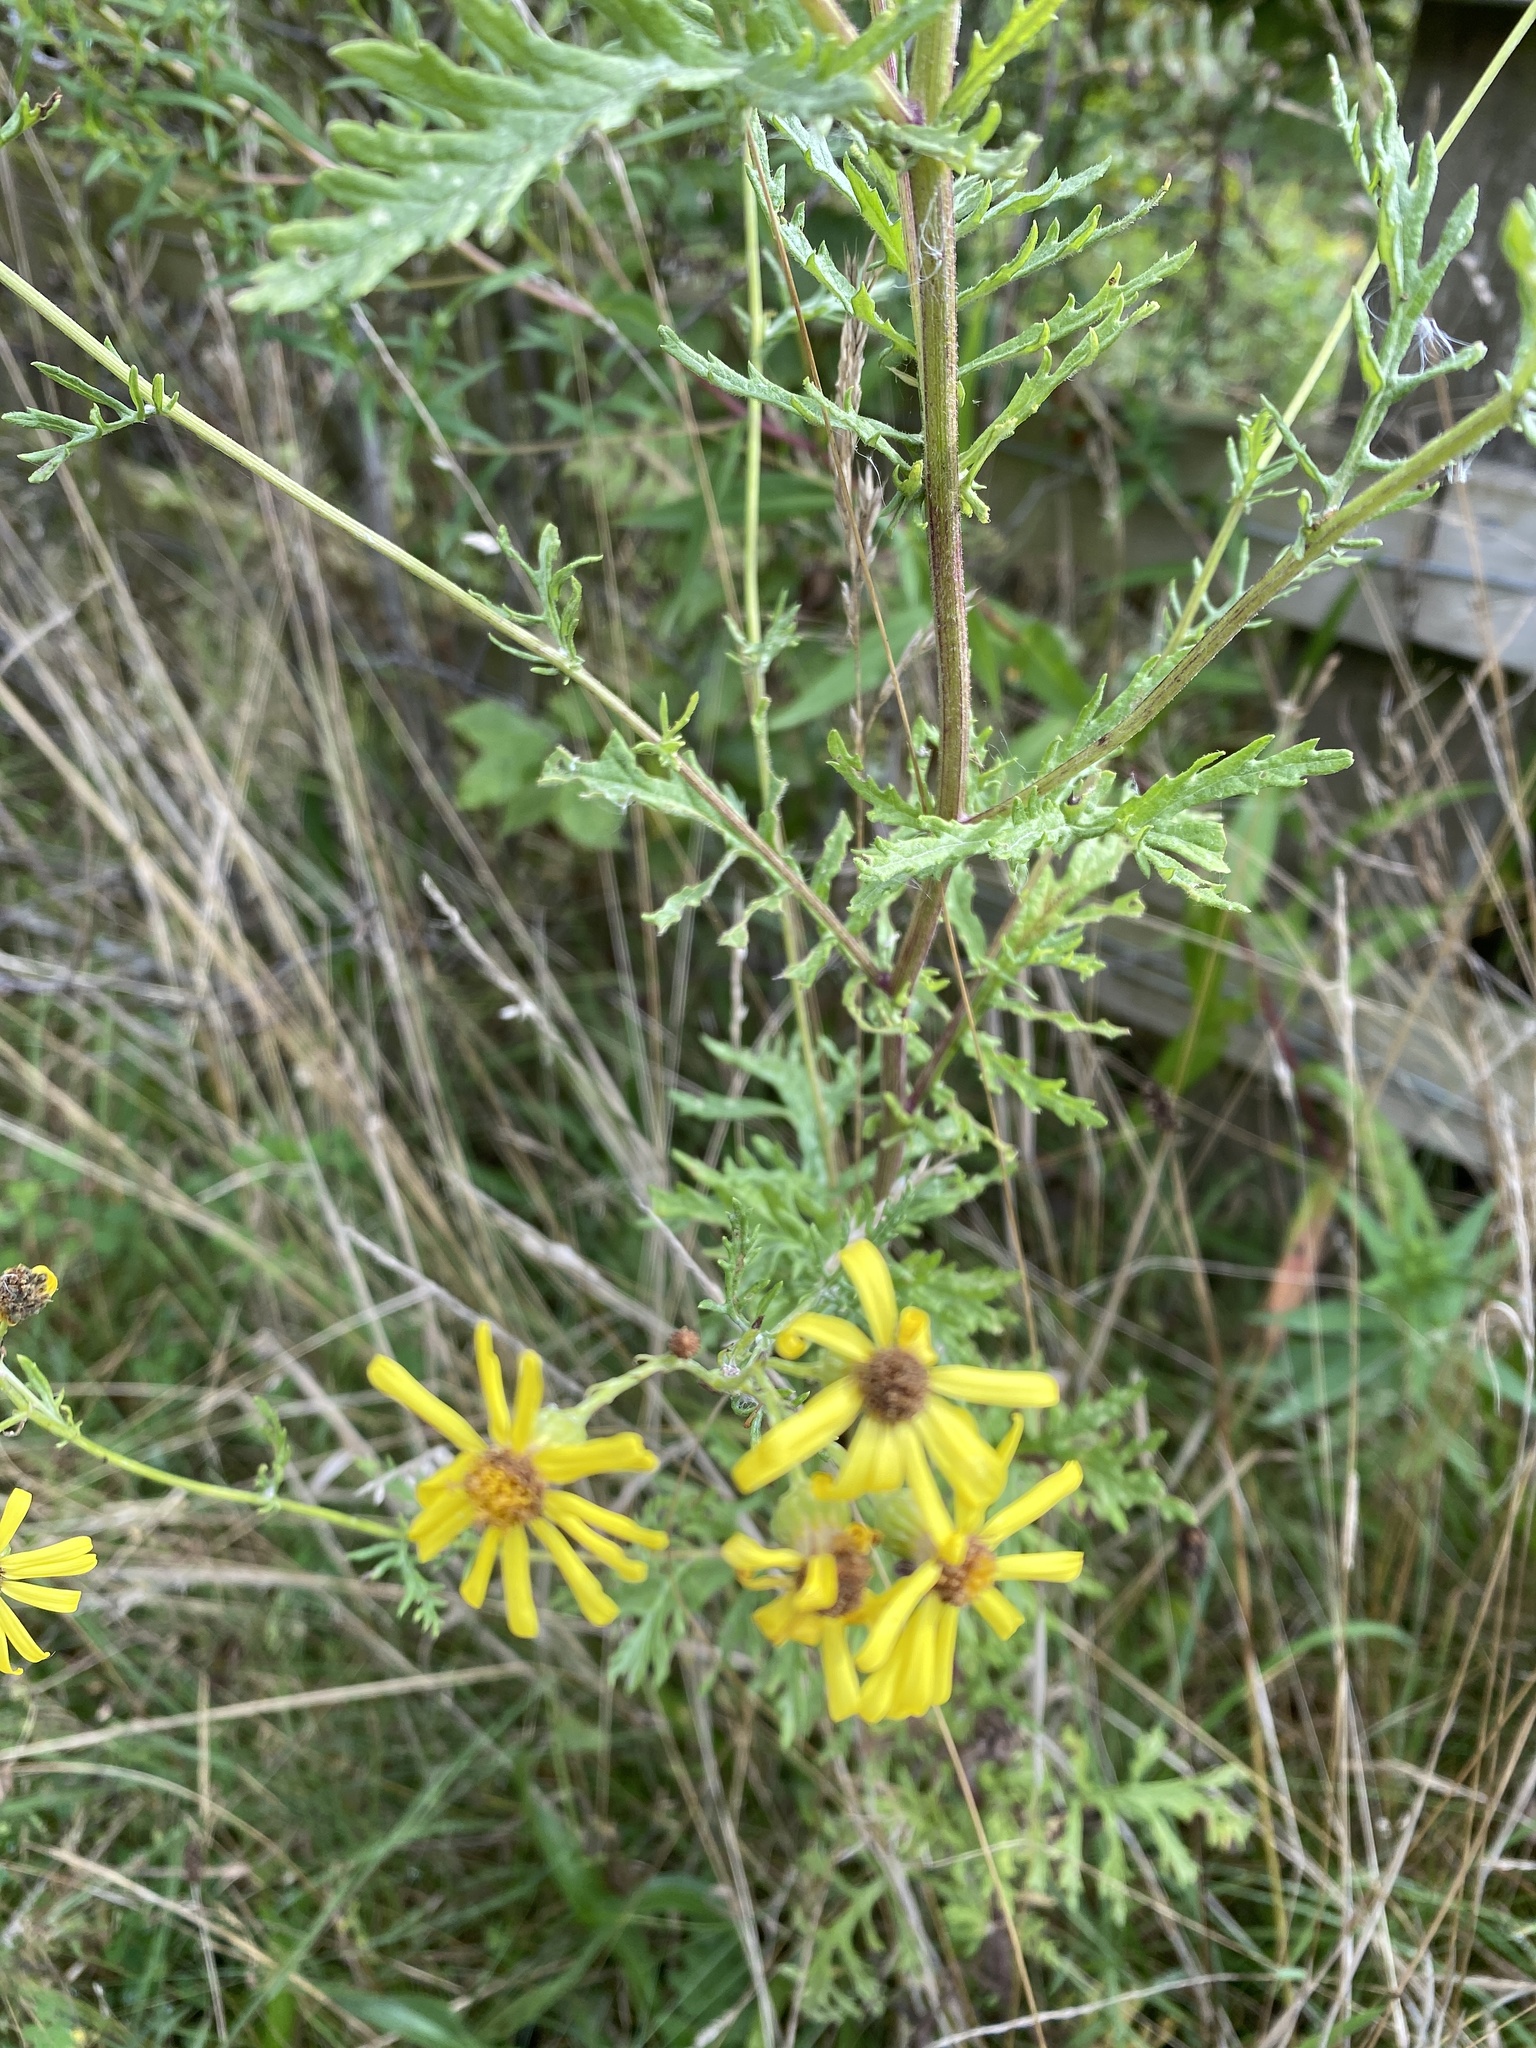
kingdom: Plantae
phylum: Tracheophyta
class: Magnoliopsida
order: Asterales
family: Asteraceae
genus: Jacobaea
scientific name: Jacobaea erucifolia
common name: Hoary ragwort
